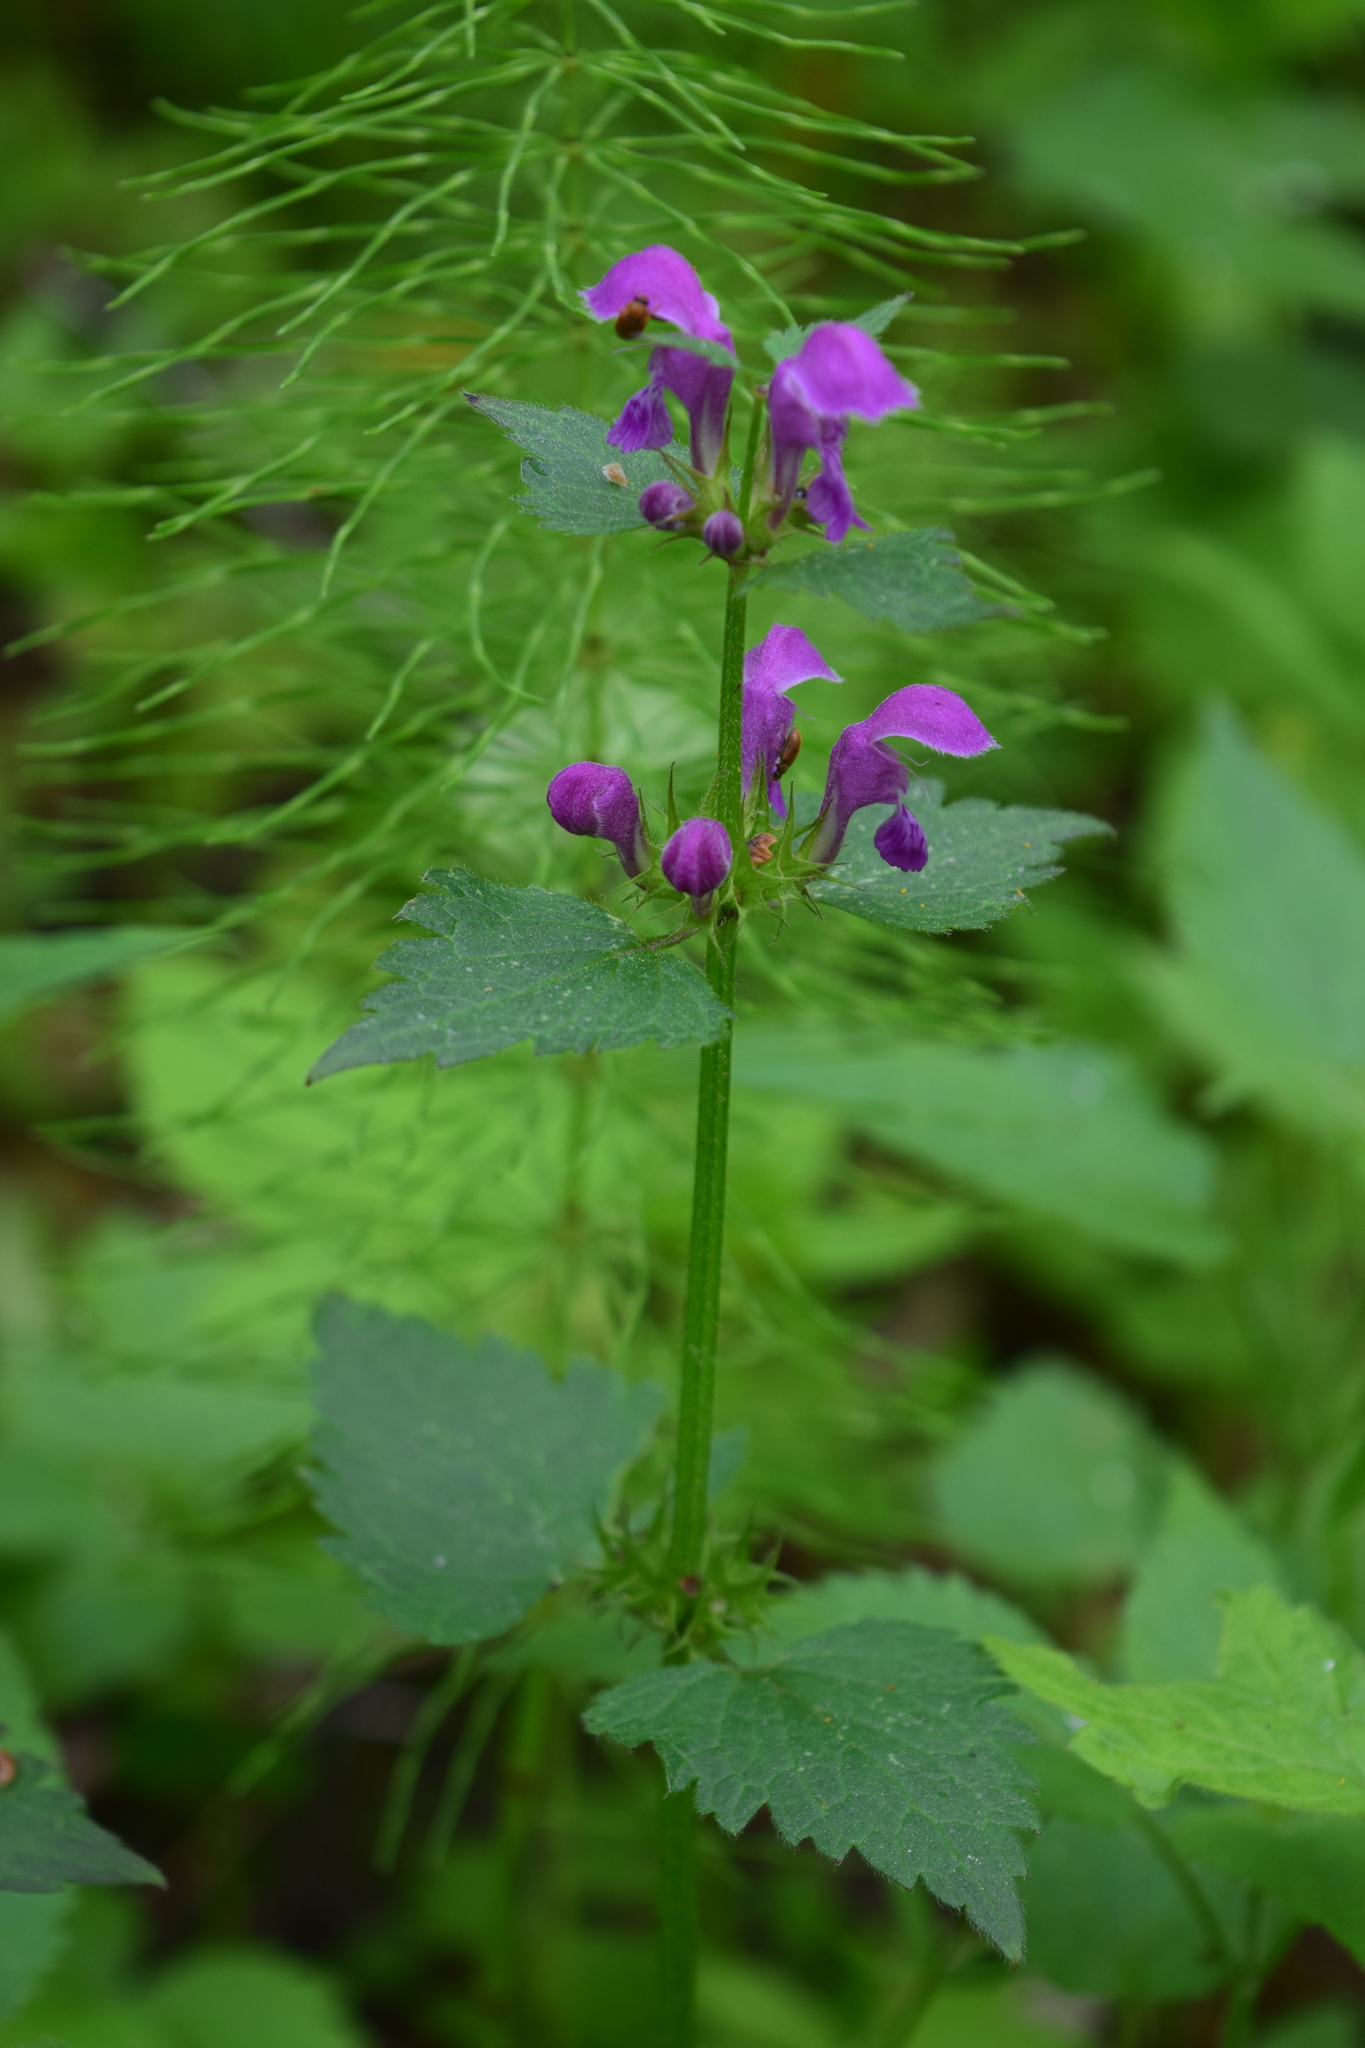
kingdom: Plantae
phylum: Tracheophyta
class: Magnoliopsida
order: Lamiales
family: Lamiaceae
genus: Lamium
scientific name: Lamium maculatum
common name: Spotted dead-nettle
